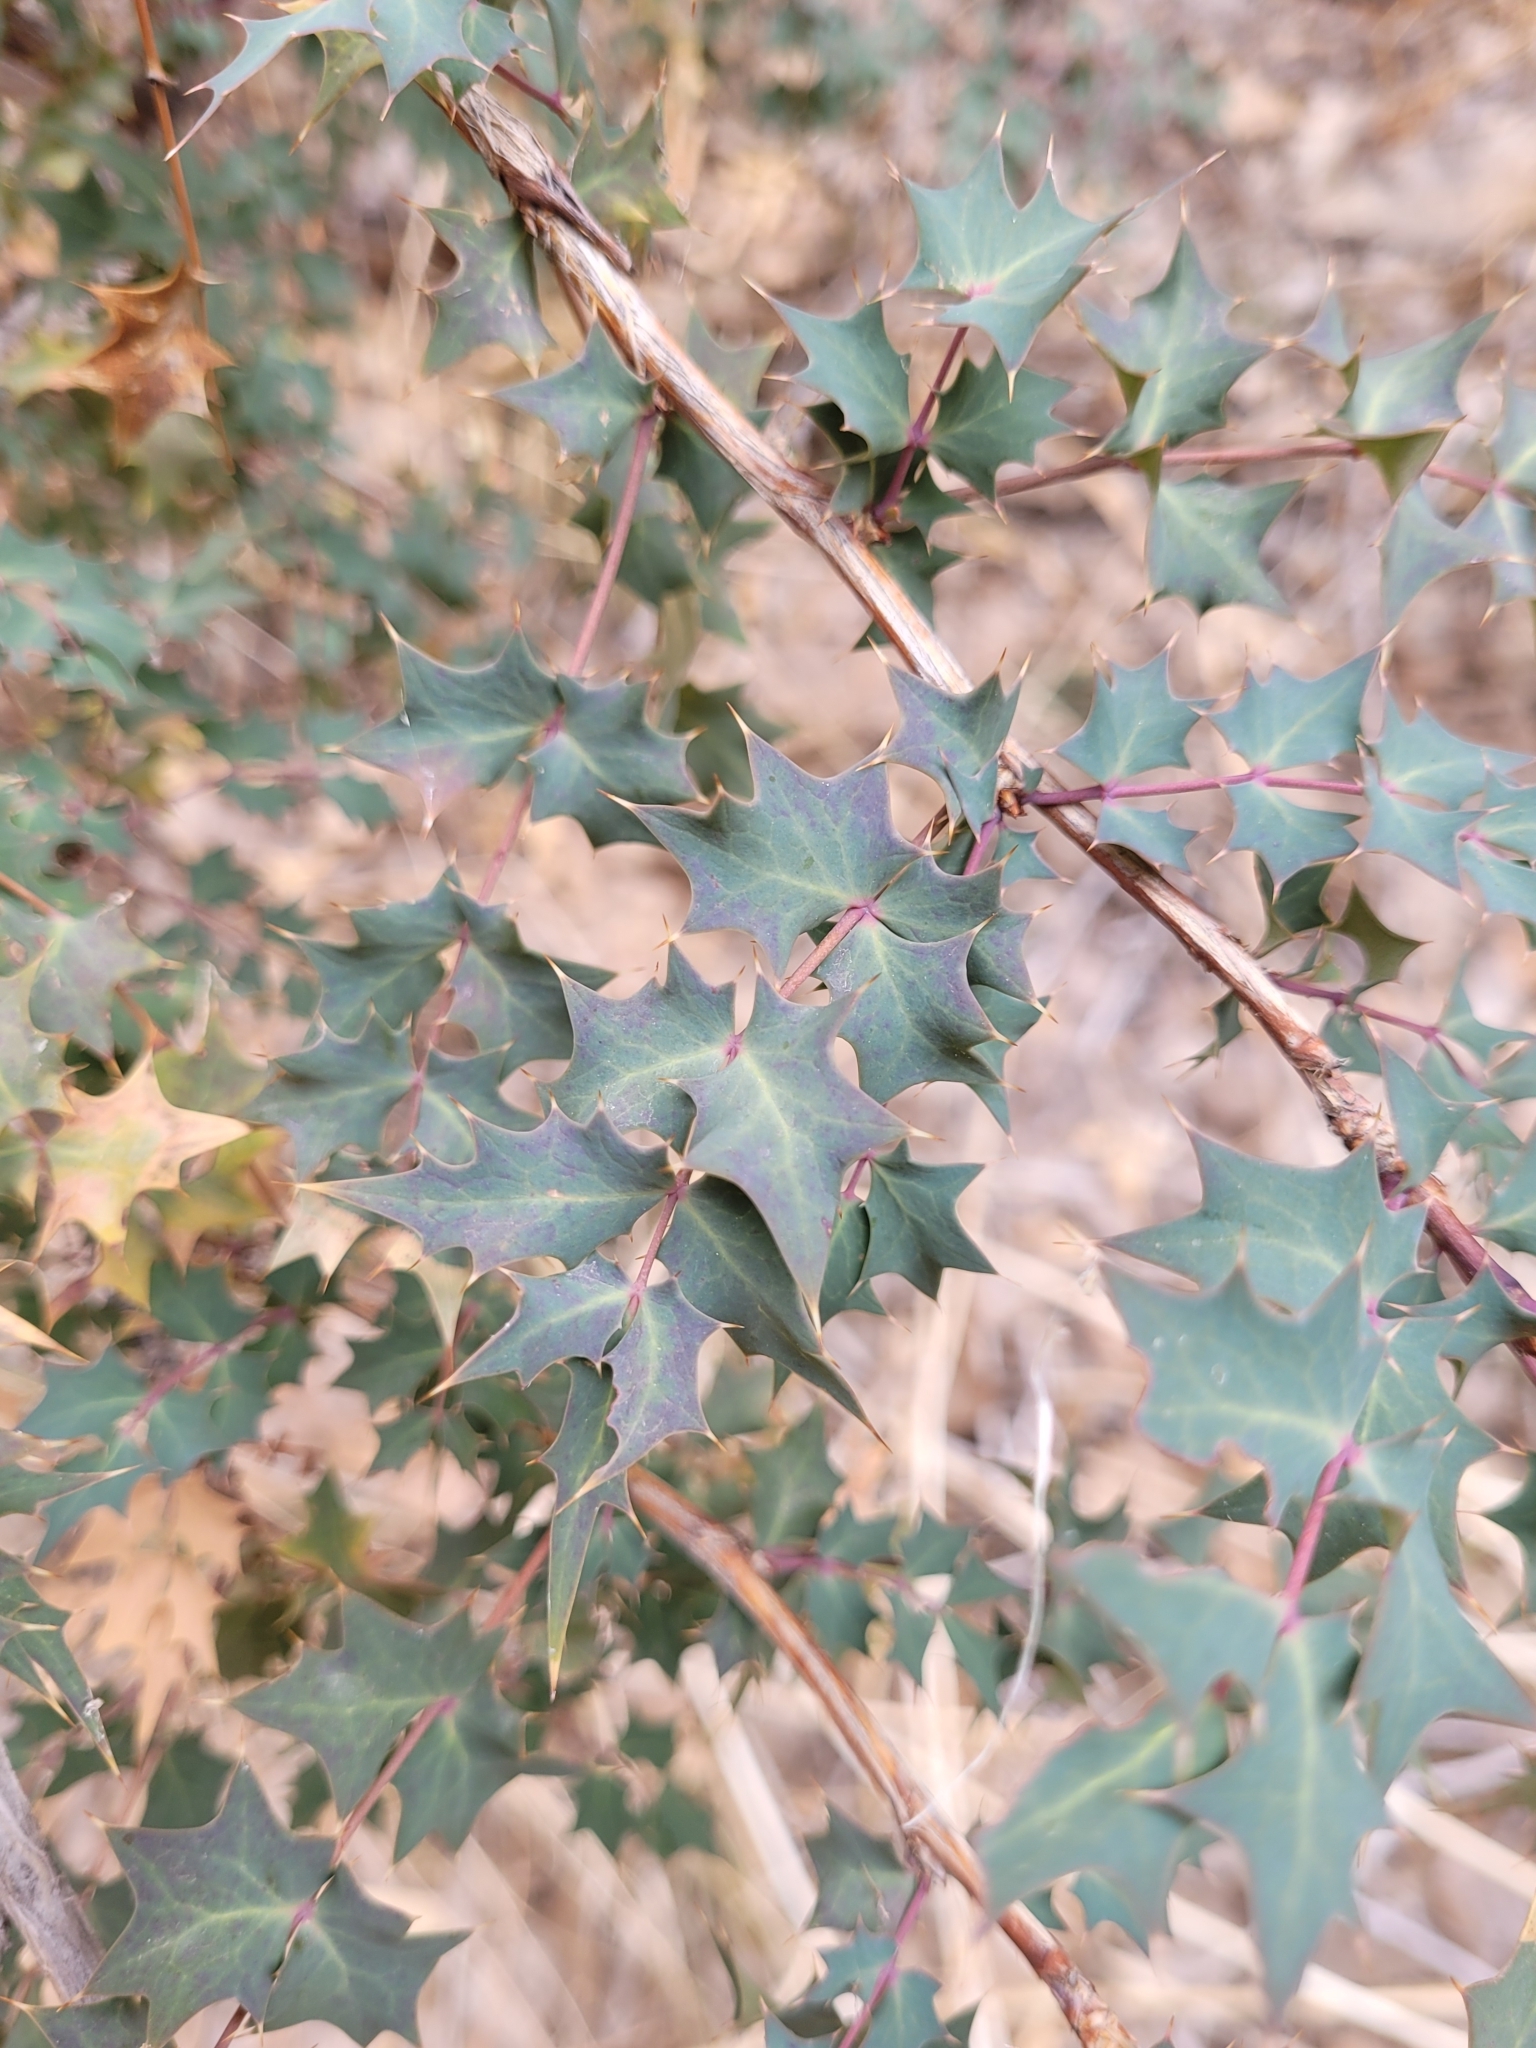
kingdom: Plantae
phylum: Tracheophyta
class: Magnoliopsida
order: Ranunculales
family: Berberidaceae
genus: Alloberberis
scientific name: Alloberberis fremontii
